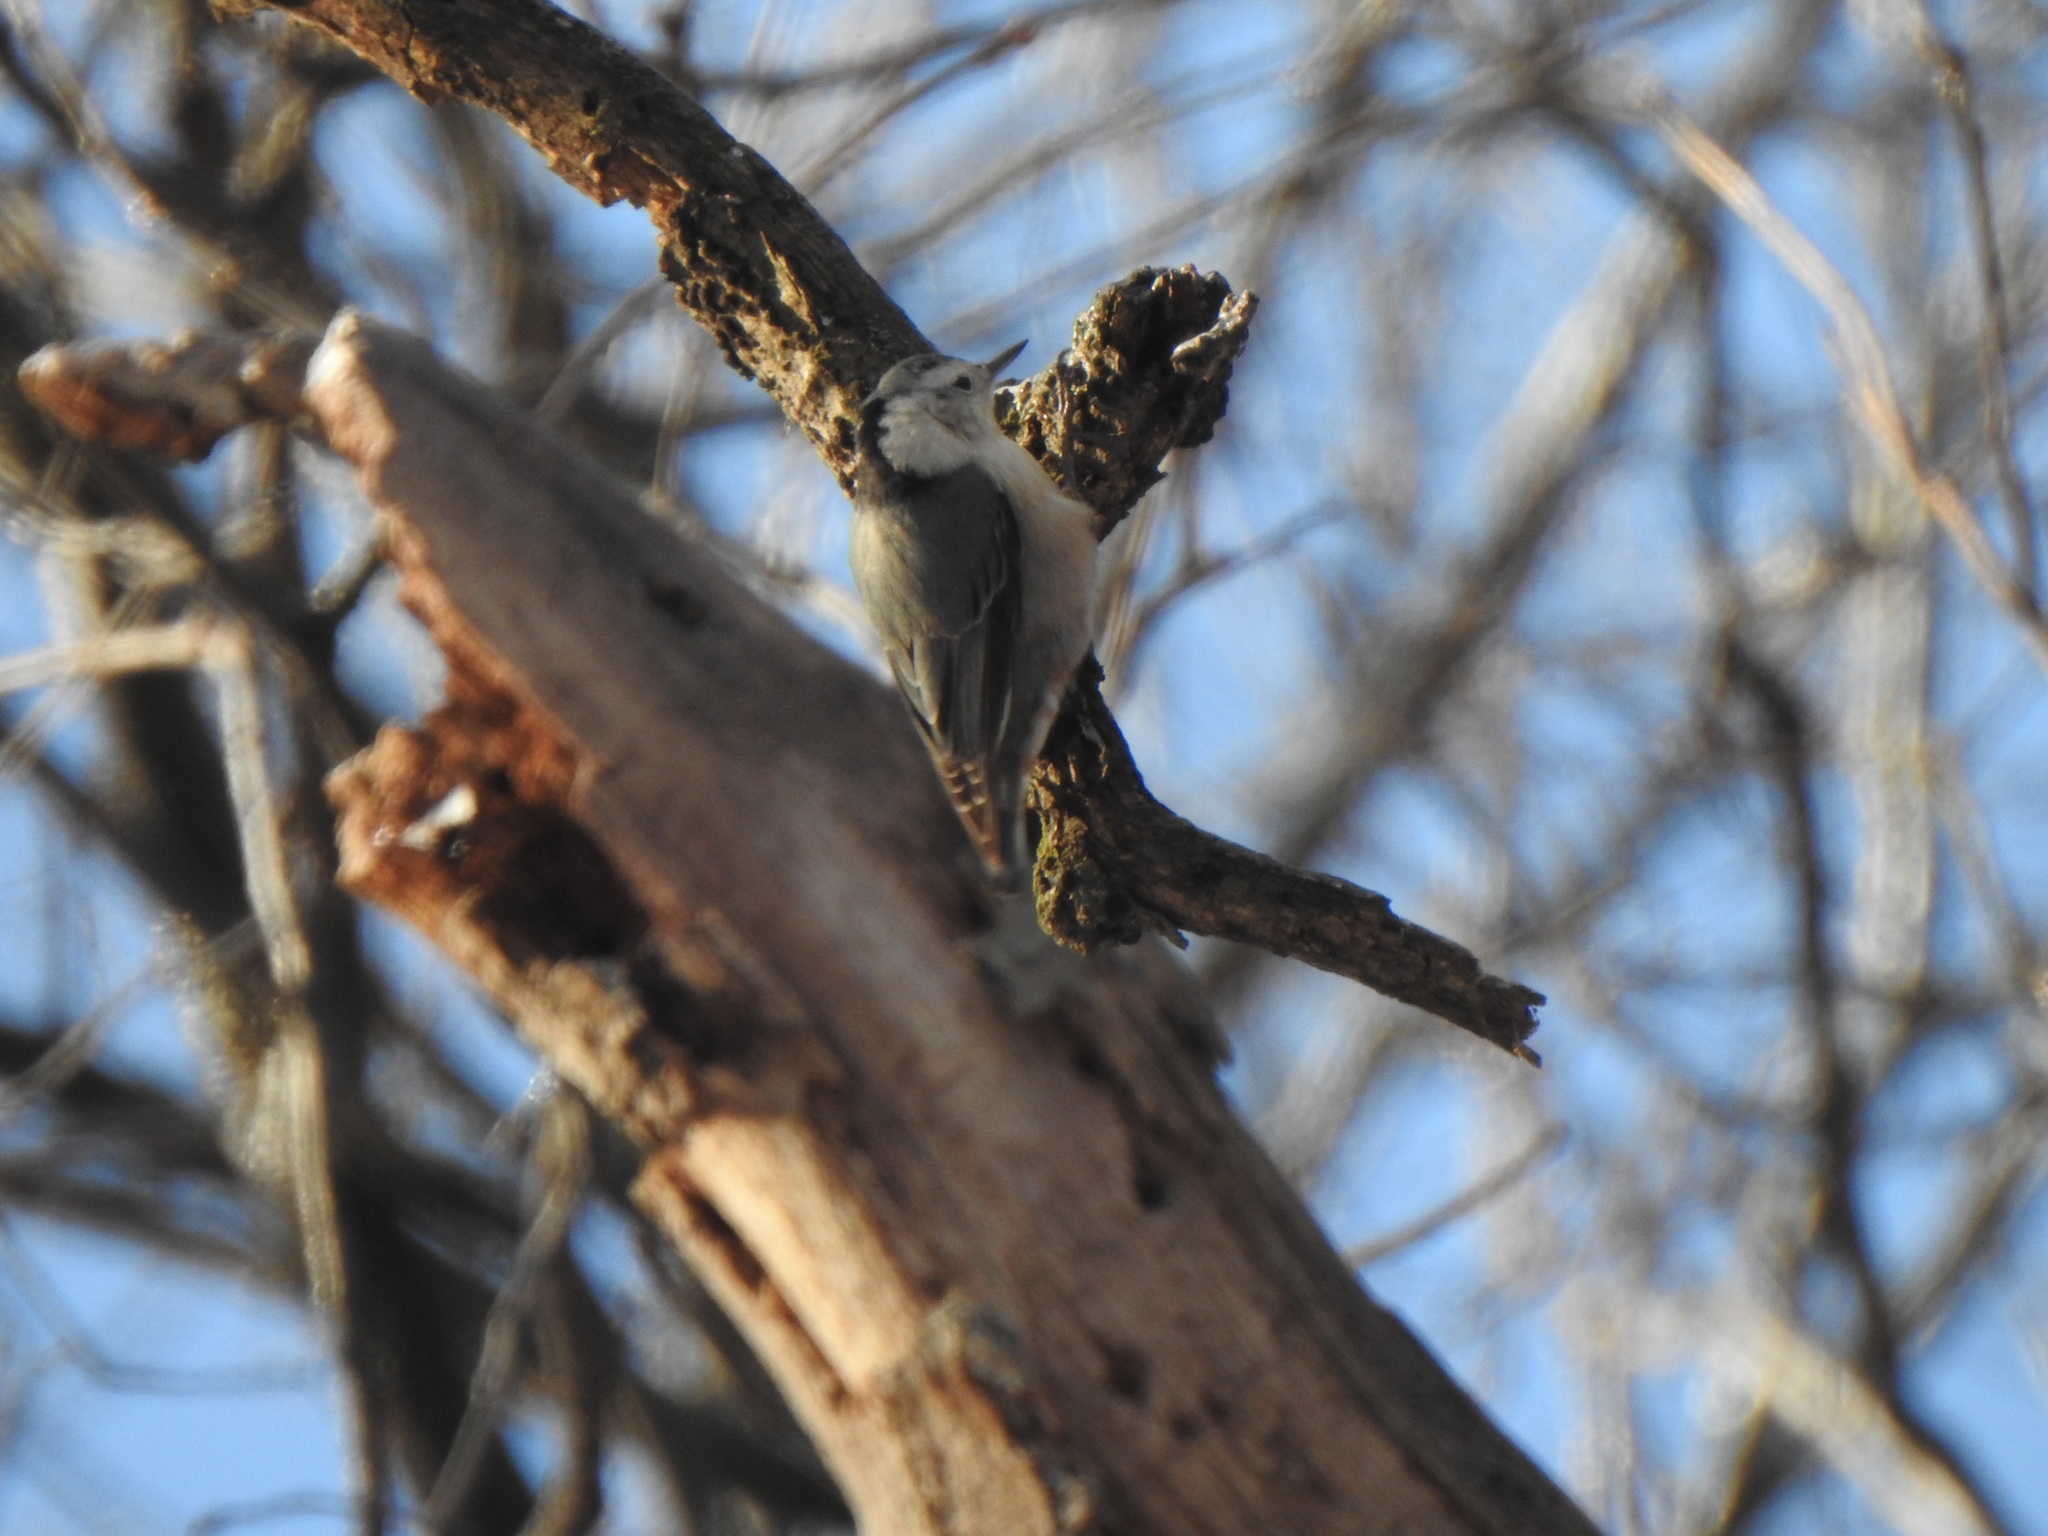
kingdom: Animalia
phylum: Chordata
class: Aves
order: Passeriformes
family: Sittidae
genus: Sitta
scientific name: Sitta carolinensis
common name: White-breasted nuthatch
